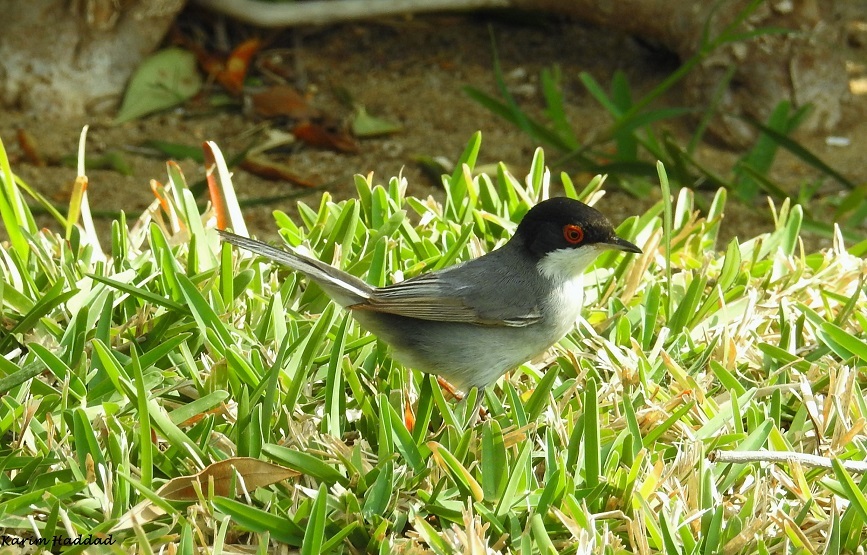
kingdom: Animalia
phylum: Chordata
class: Aves
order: Passeriformes
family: Sylviidae
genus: Curruca
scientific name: Curruca melanocephala
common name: Sardinian warbler
